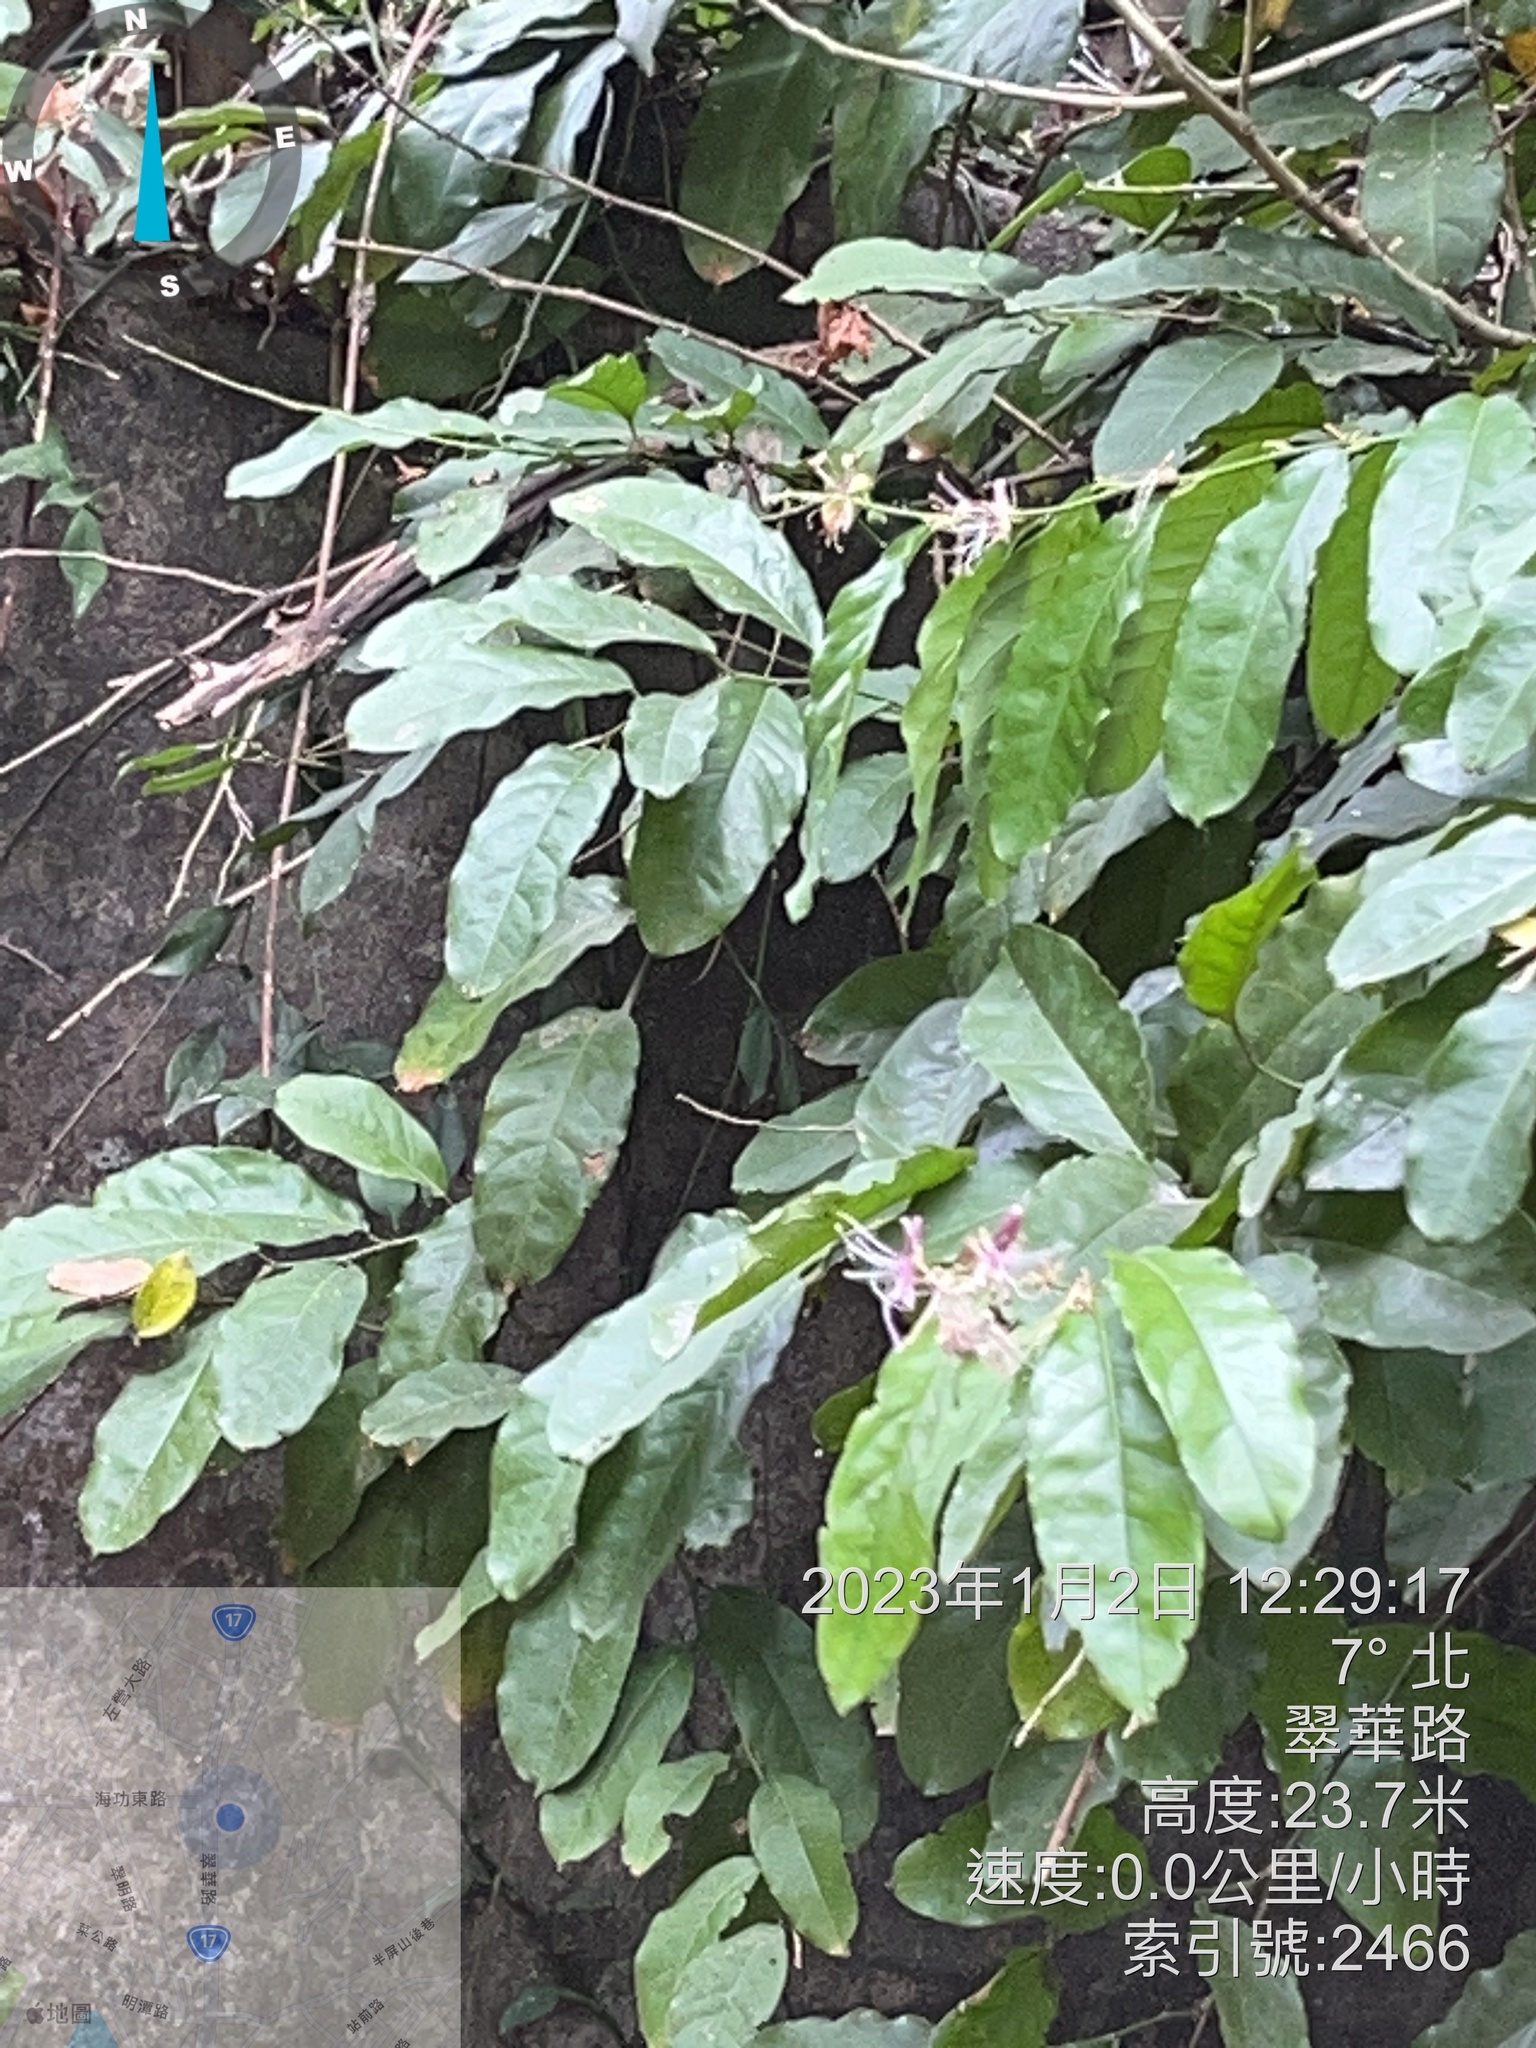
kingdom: Plantae
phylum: Tracheophyta
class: Magnoliopsida
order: Brassicales
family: Capparaceae
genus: Capparis
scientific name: Capparis micracantha
